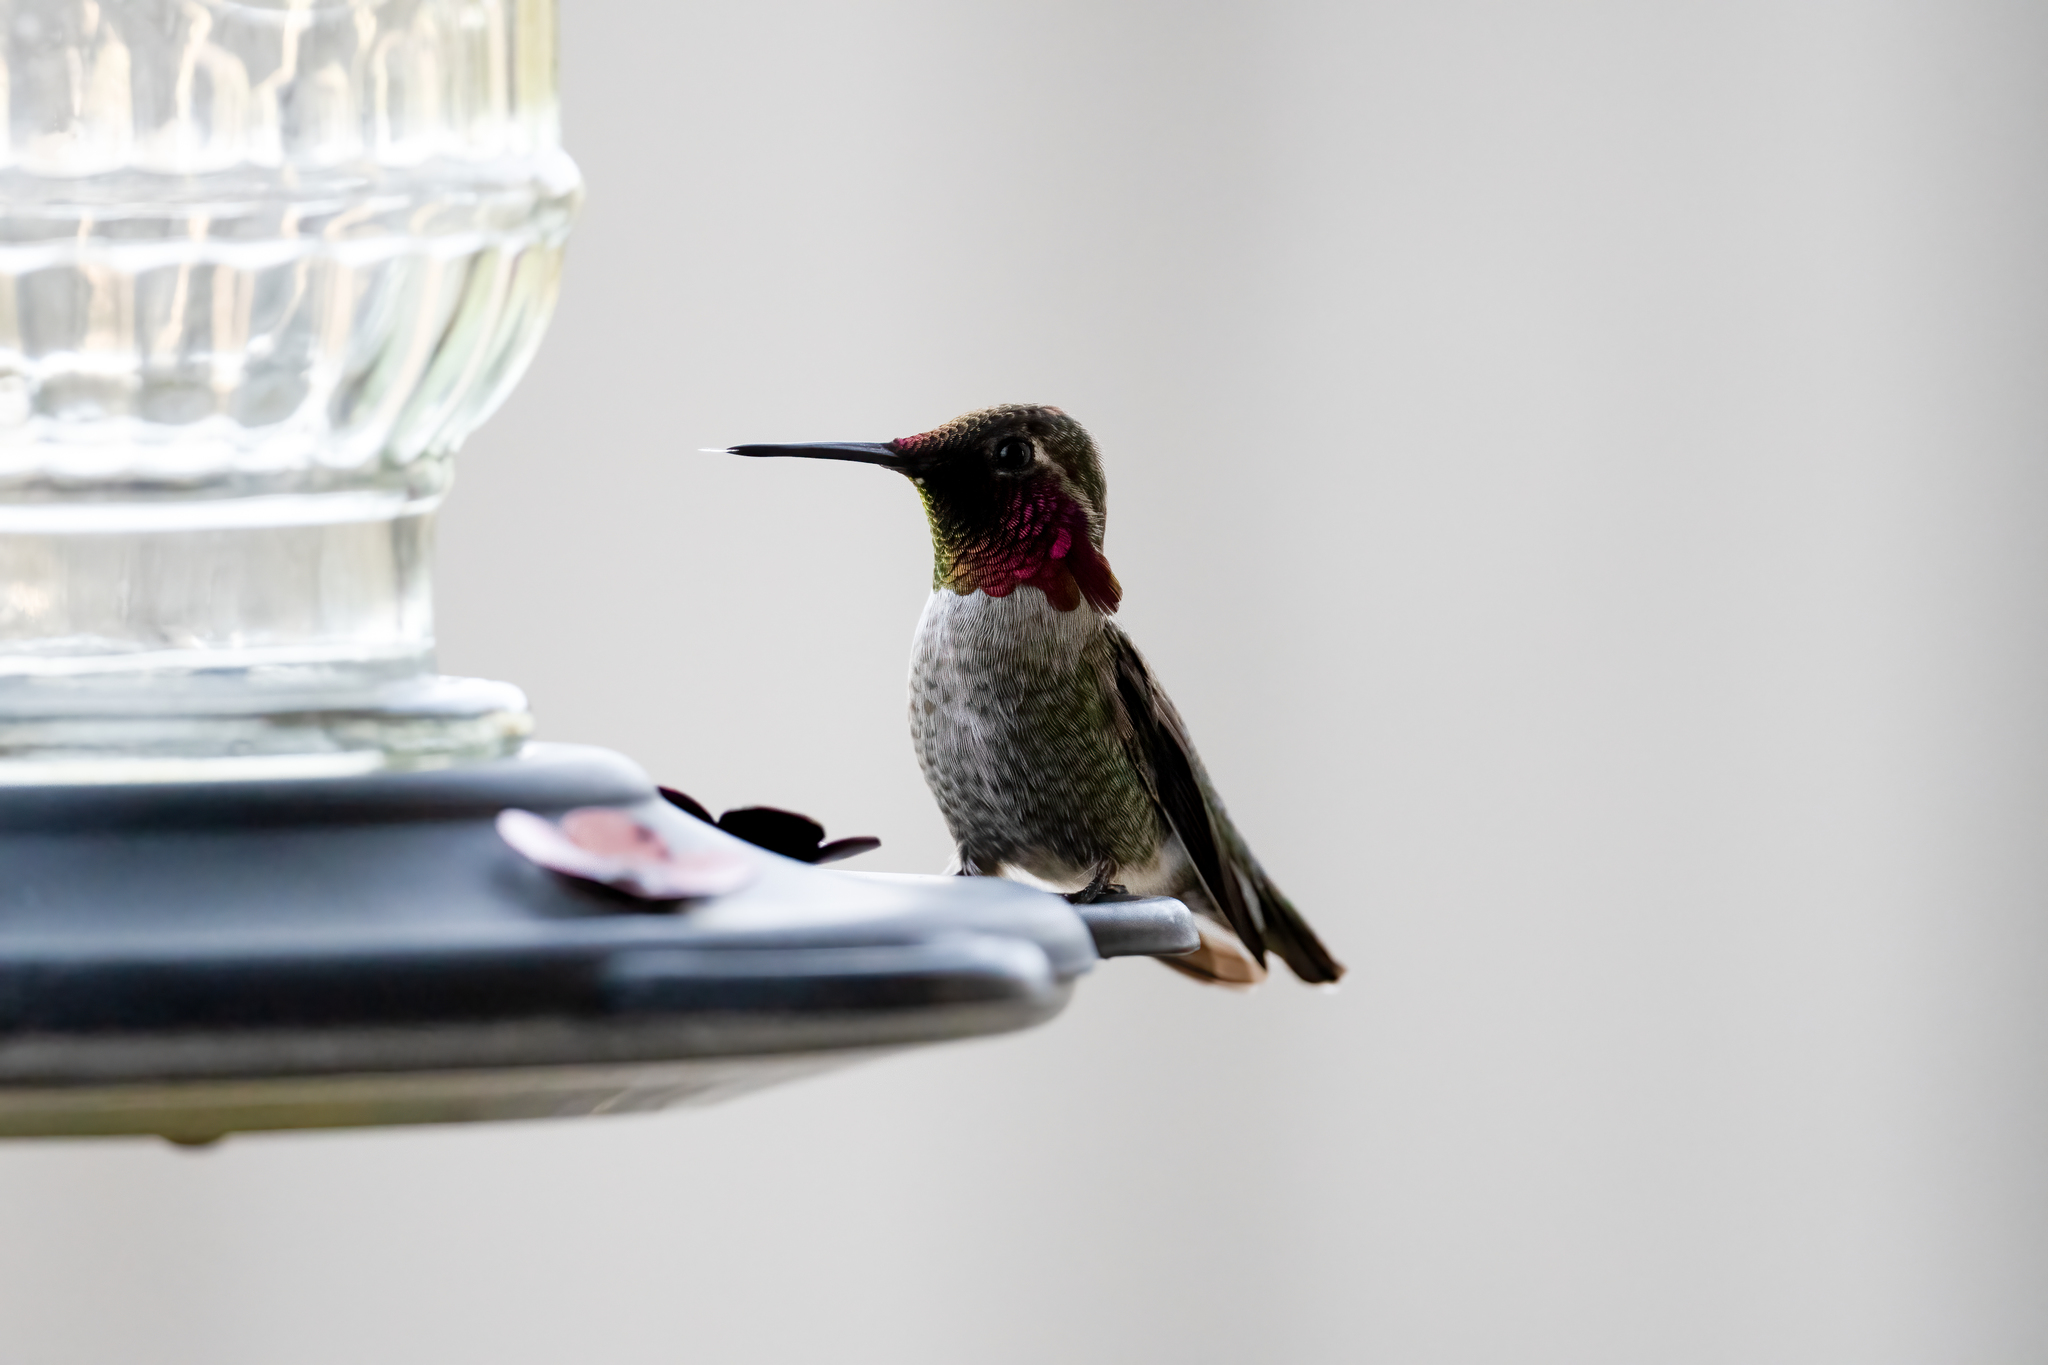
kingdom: Animalia
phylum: Chordata
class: Aves
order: Apodiformes
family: Trochilidae
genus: Calypte
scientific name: Calypte anna
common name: Anna's hummingbird
